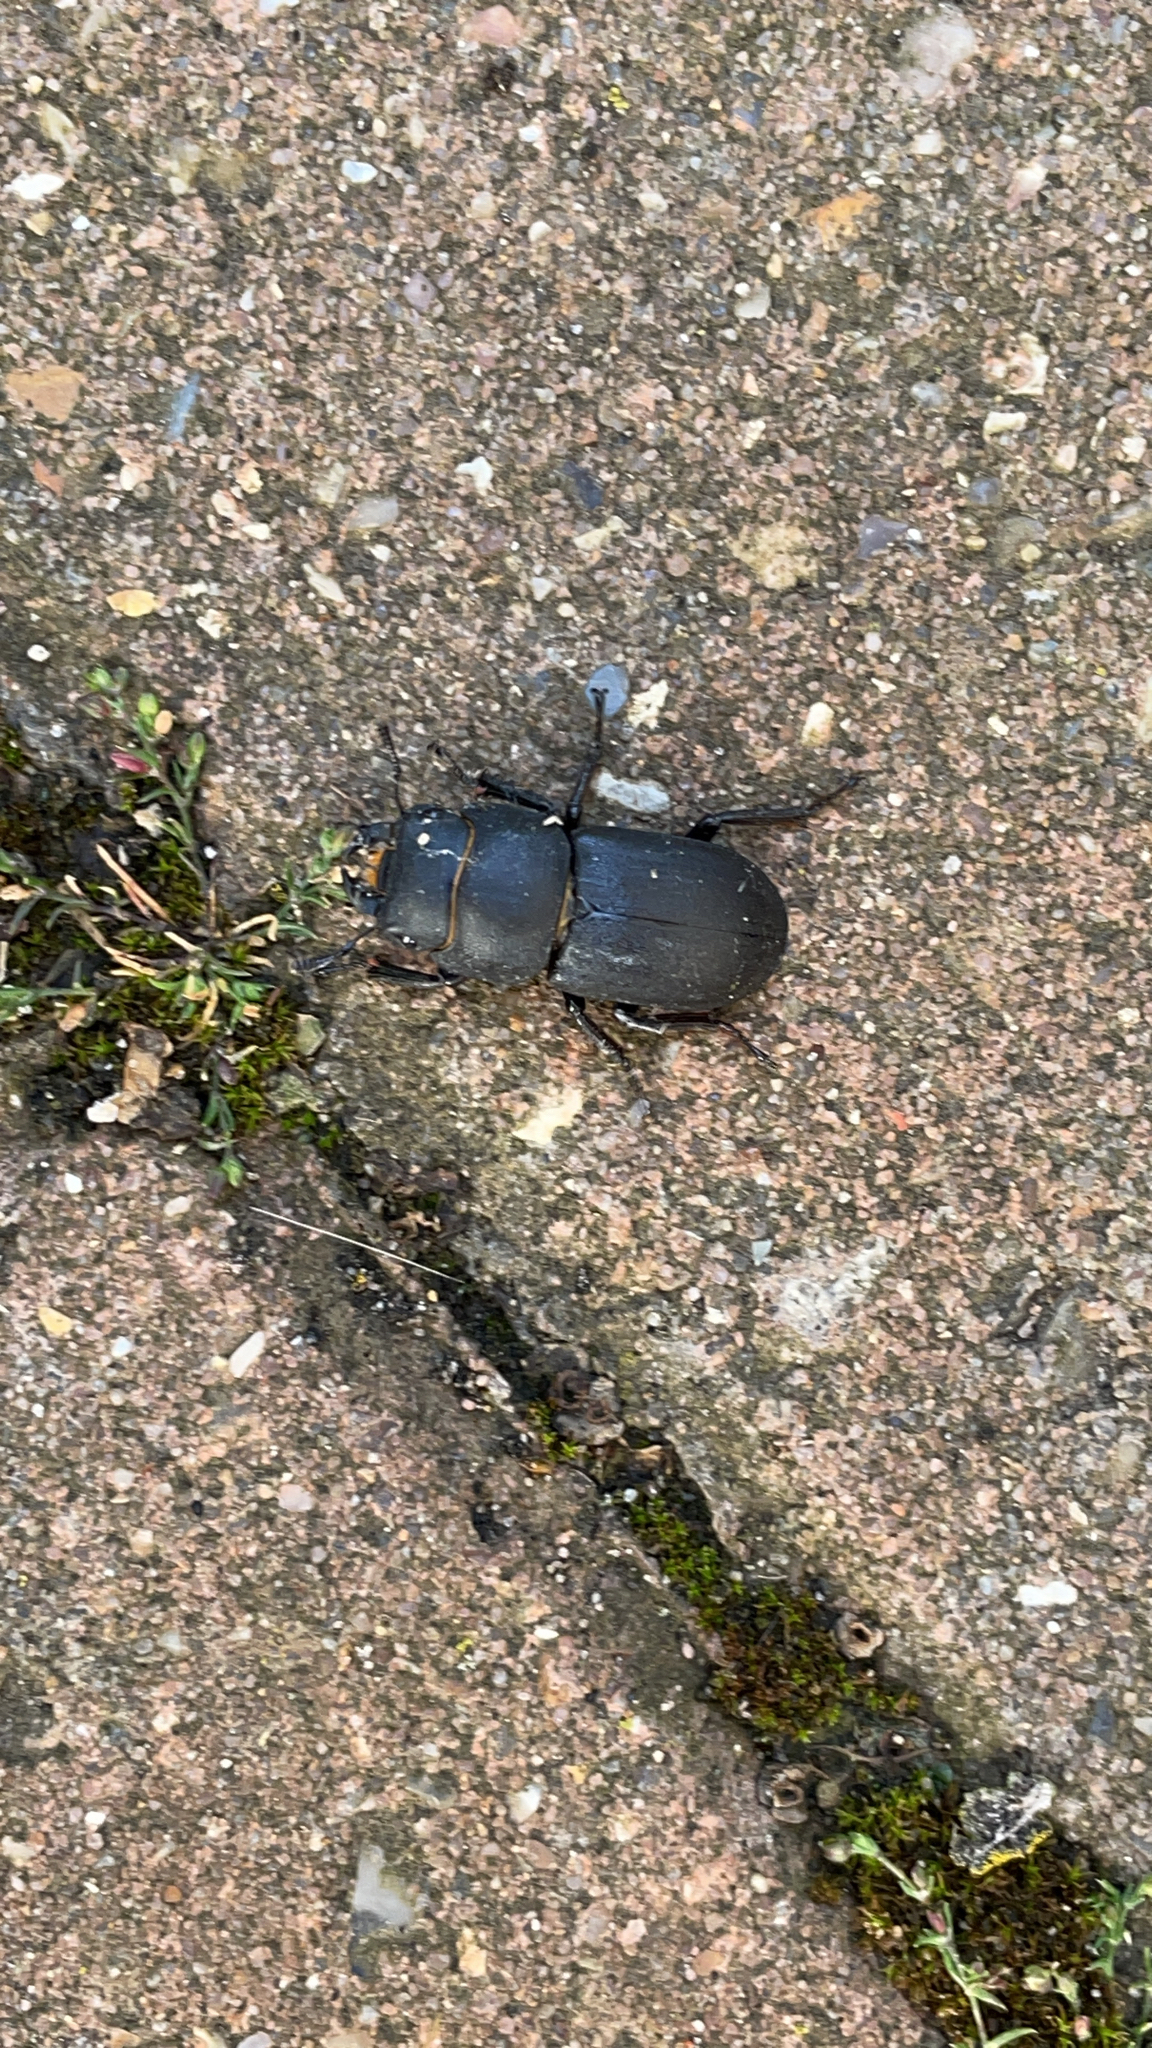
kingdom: Animalia
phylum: Arthropoda
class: Insecta
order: Coleoptera
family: Lucanidae
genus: Dorcus
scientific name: Dorcus parallelipipedus
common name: Lesser stag beetle
